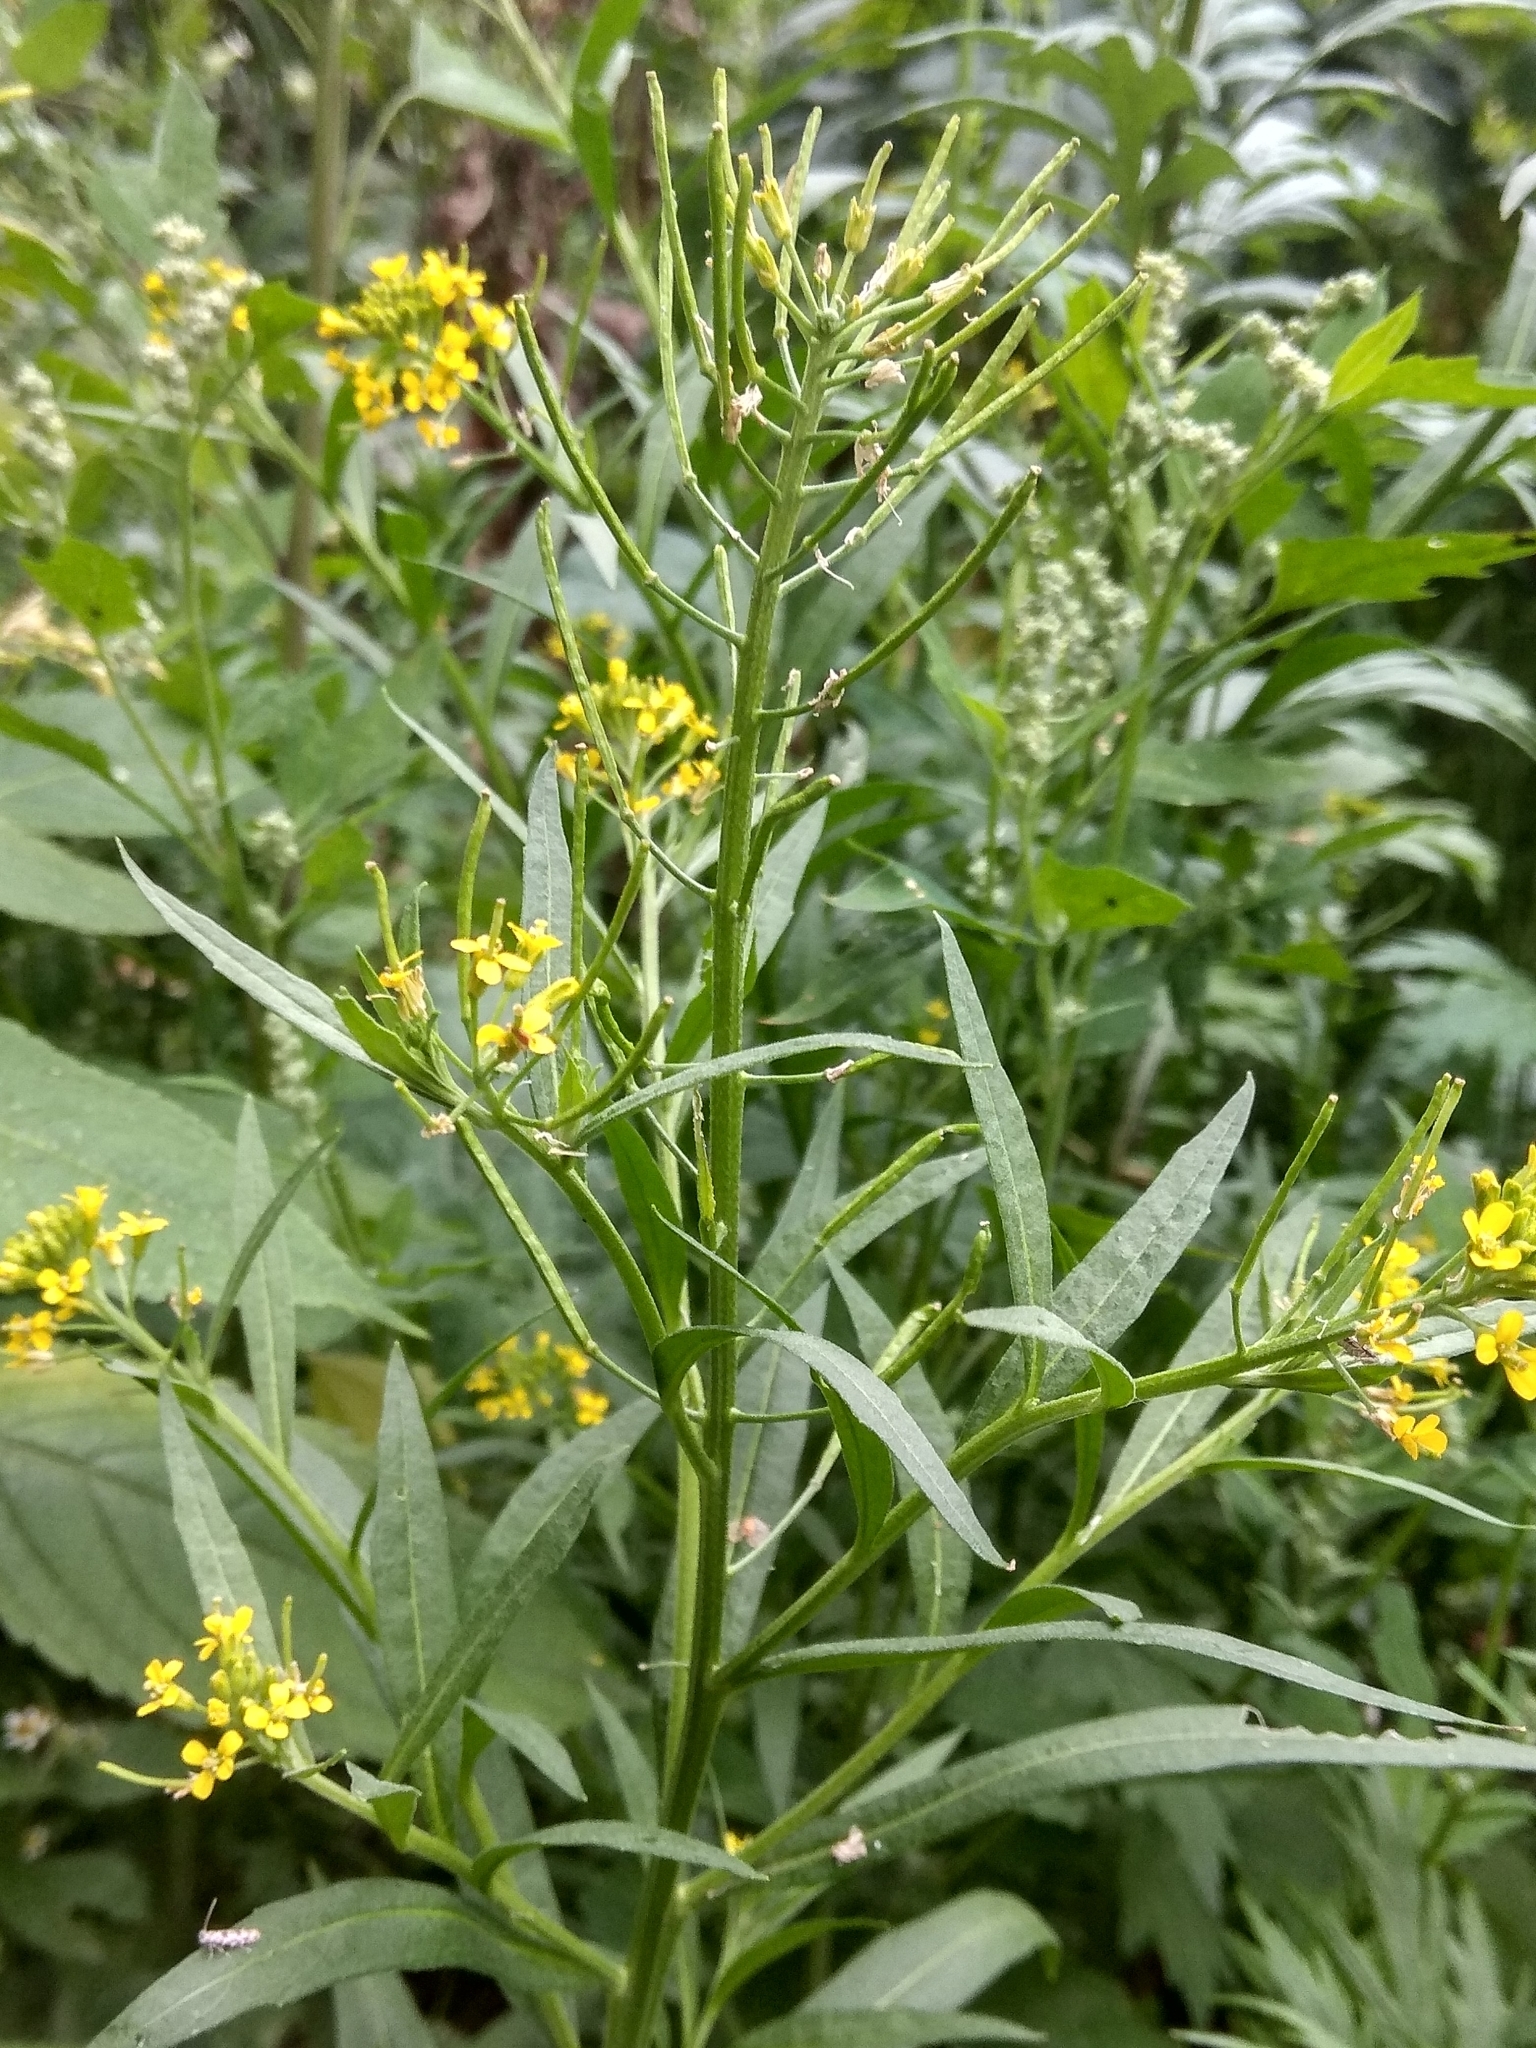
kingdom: Plantae
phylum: Tracheophyta
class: Magnoliopsida
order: Brassicales
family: Brassicaceae
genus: Erysimum
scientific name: Erysimum cheiranthoides
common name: Treacle mustard
